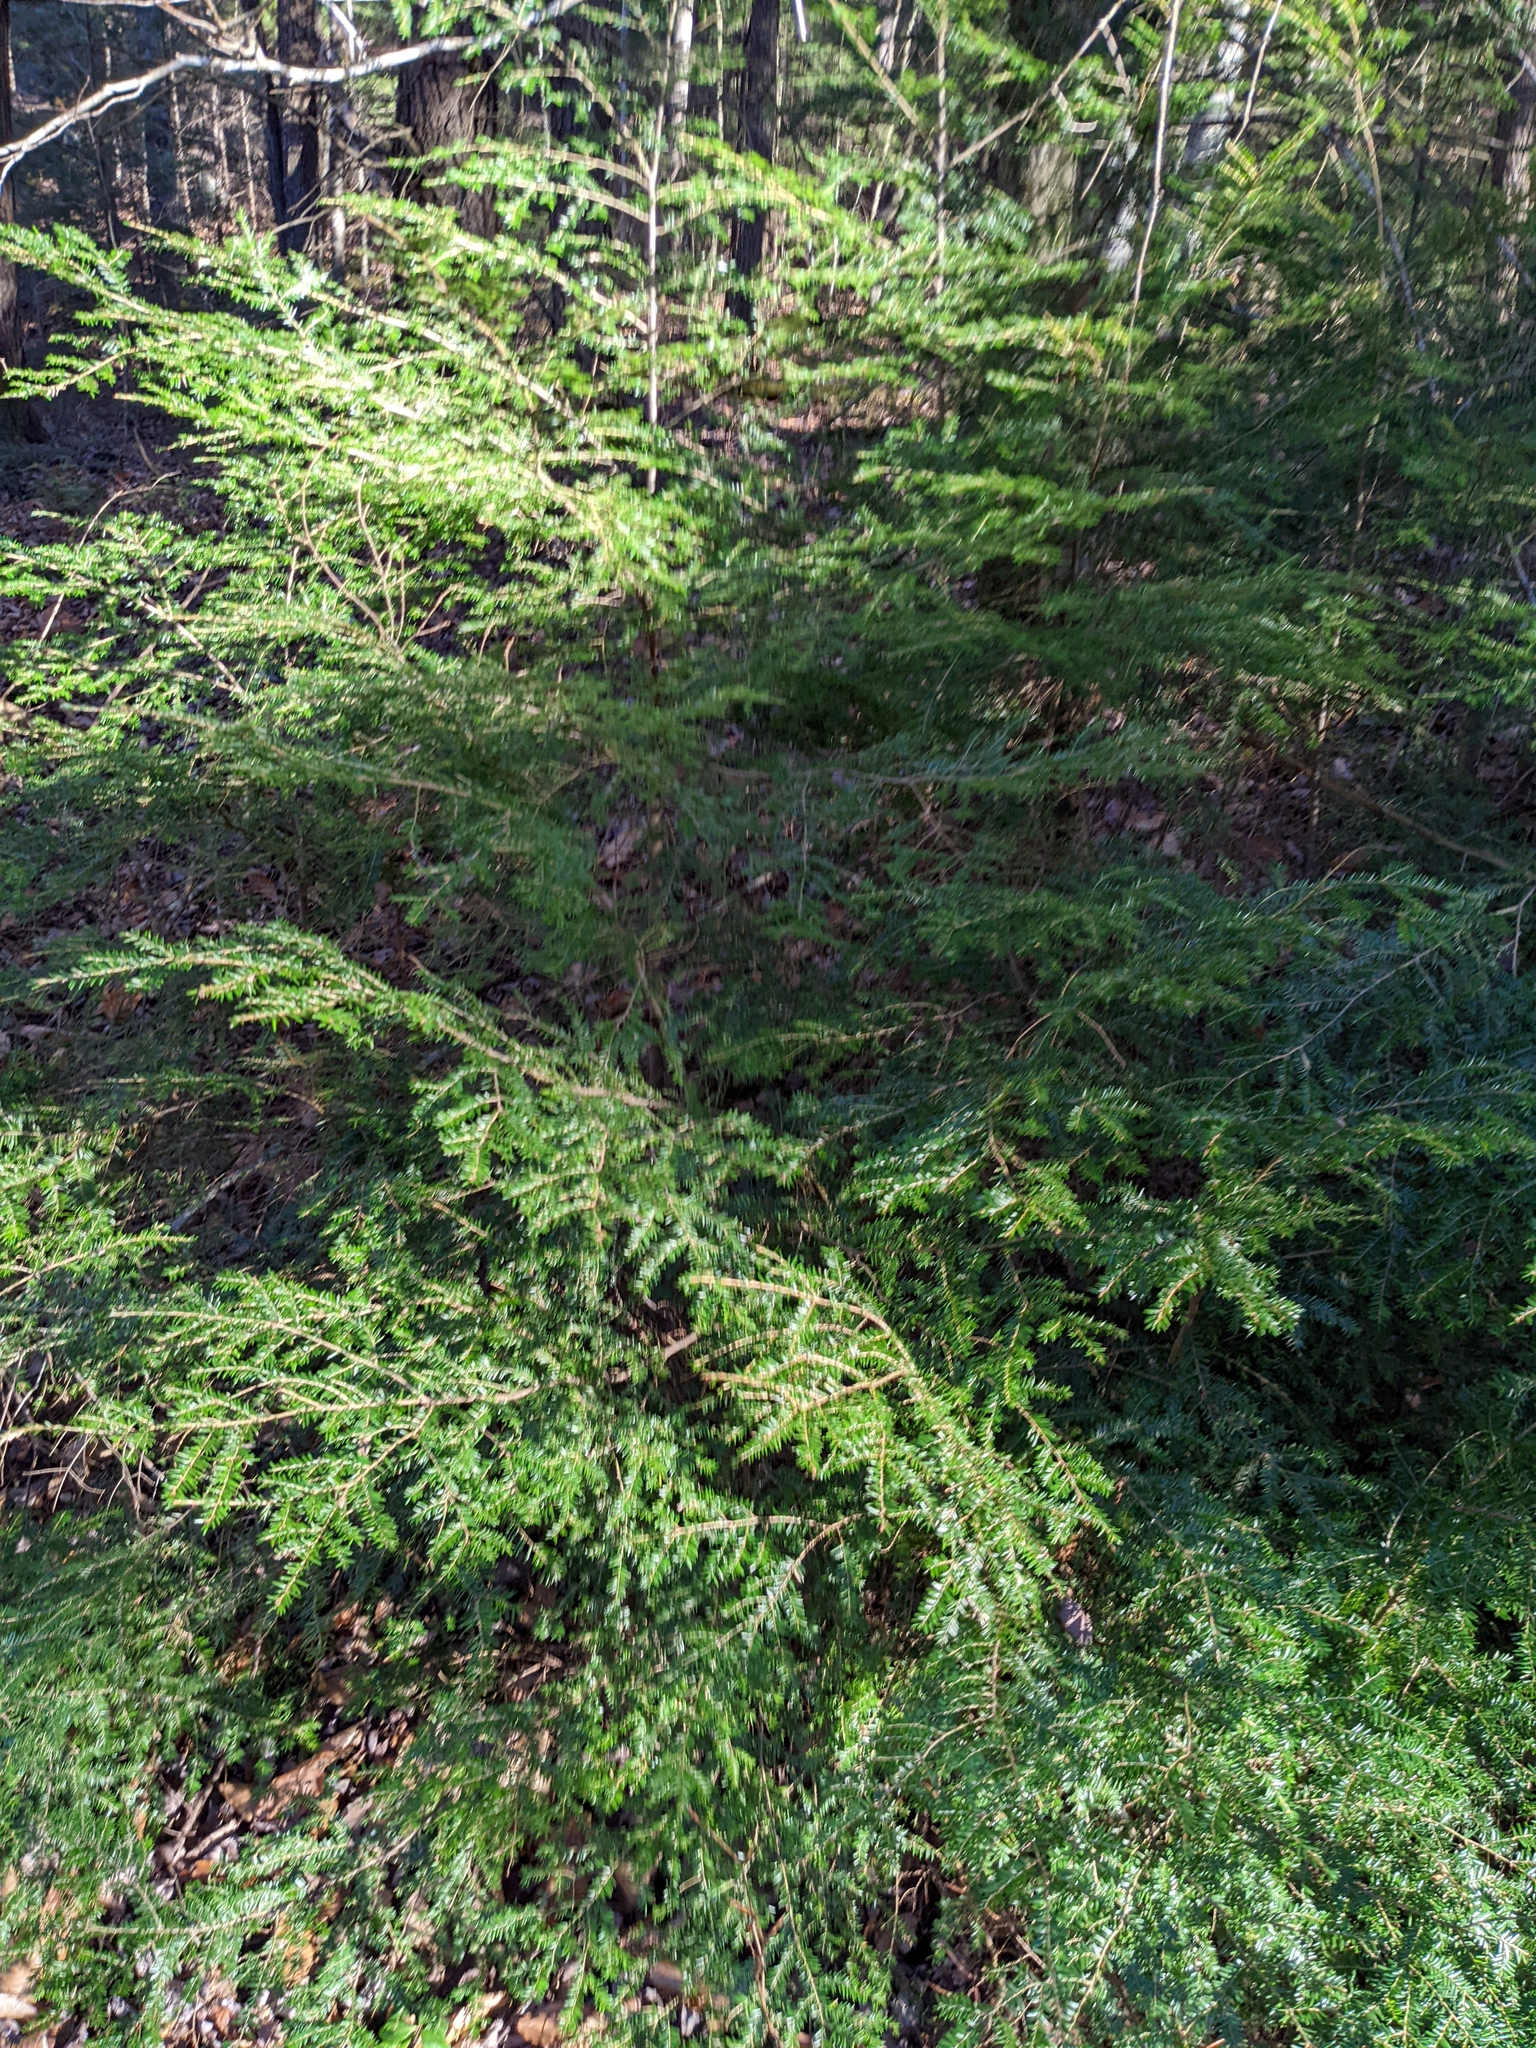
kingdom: Plantae
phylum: Tracheophyta
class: Pinopsida
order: Pinales
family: Pinaceae
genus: Tsuga
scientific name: Tsuga canadensis
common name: Eastern hemlock
